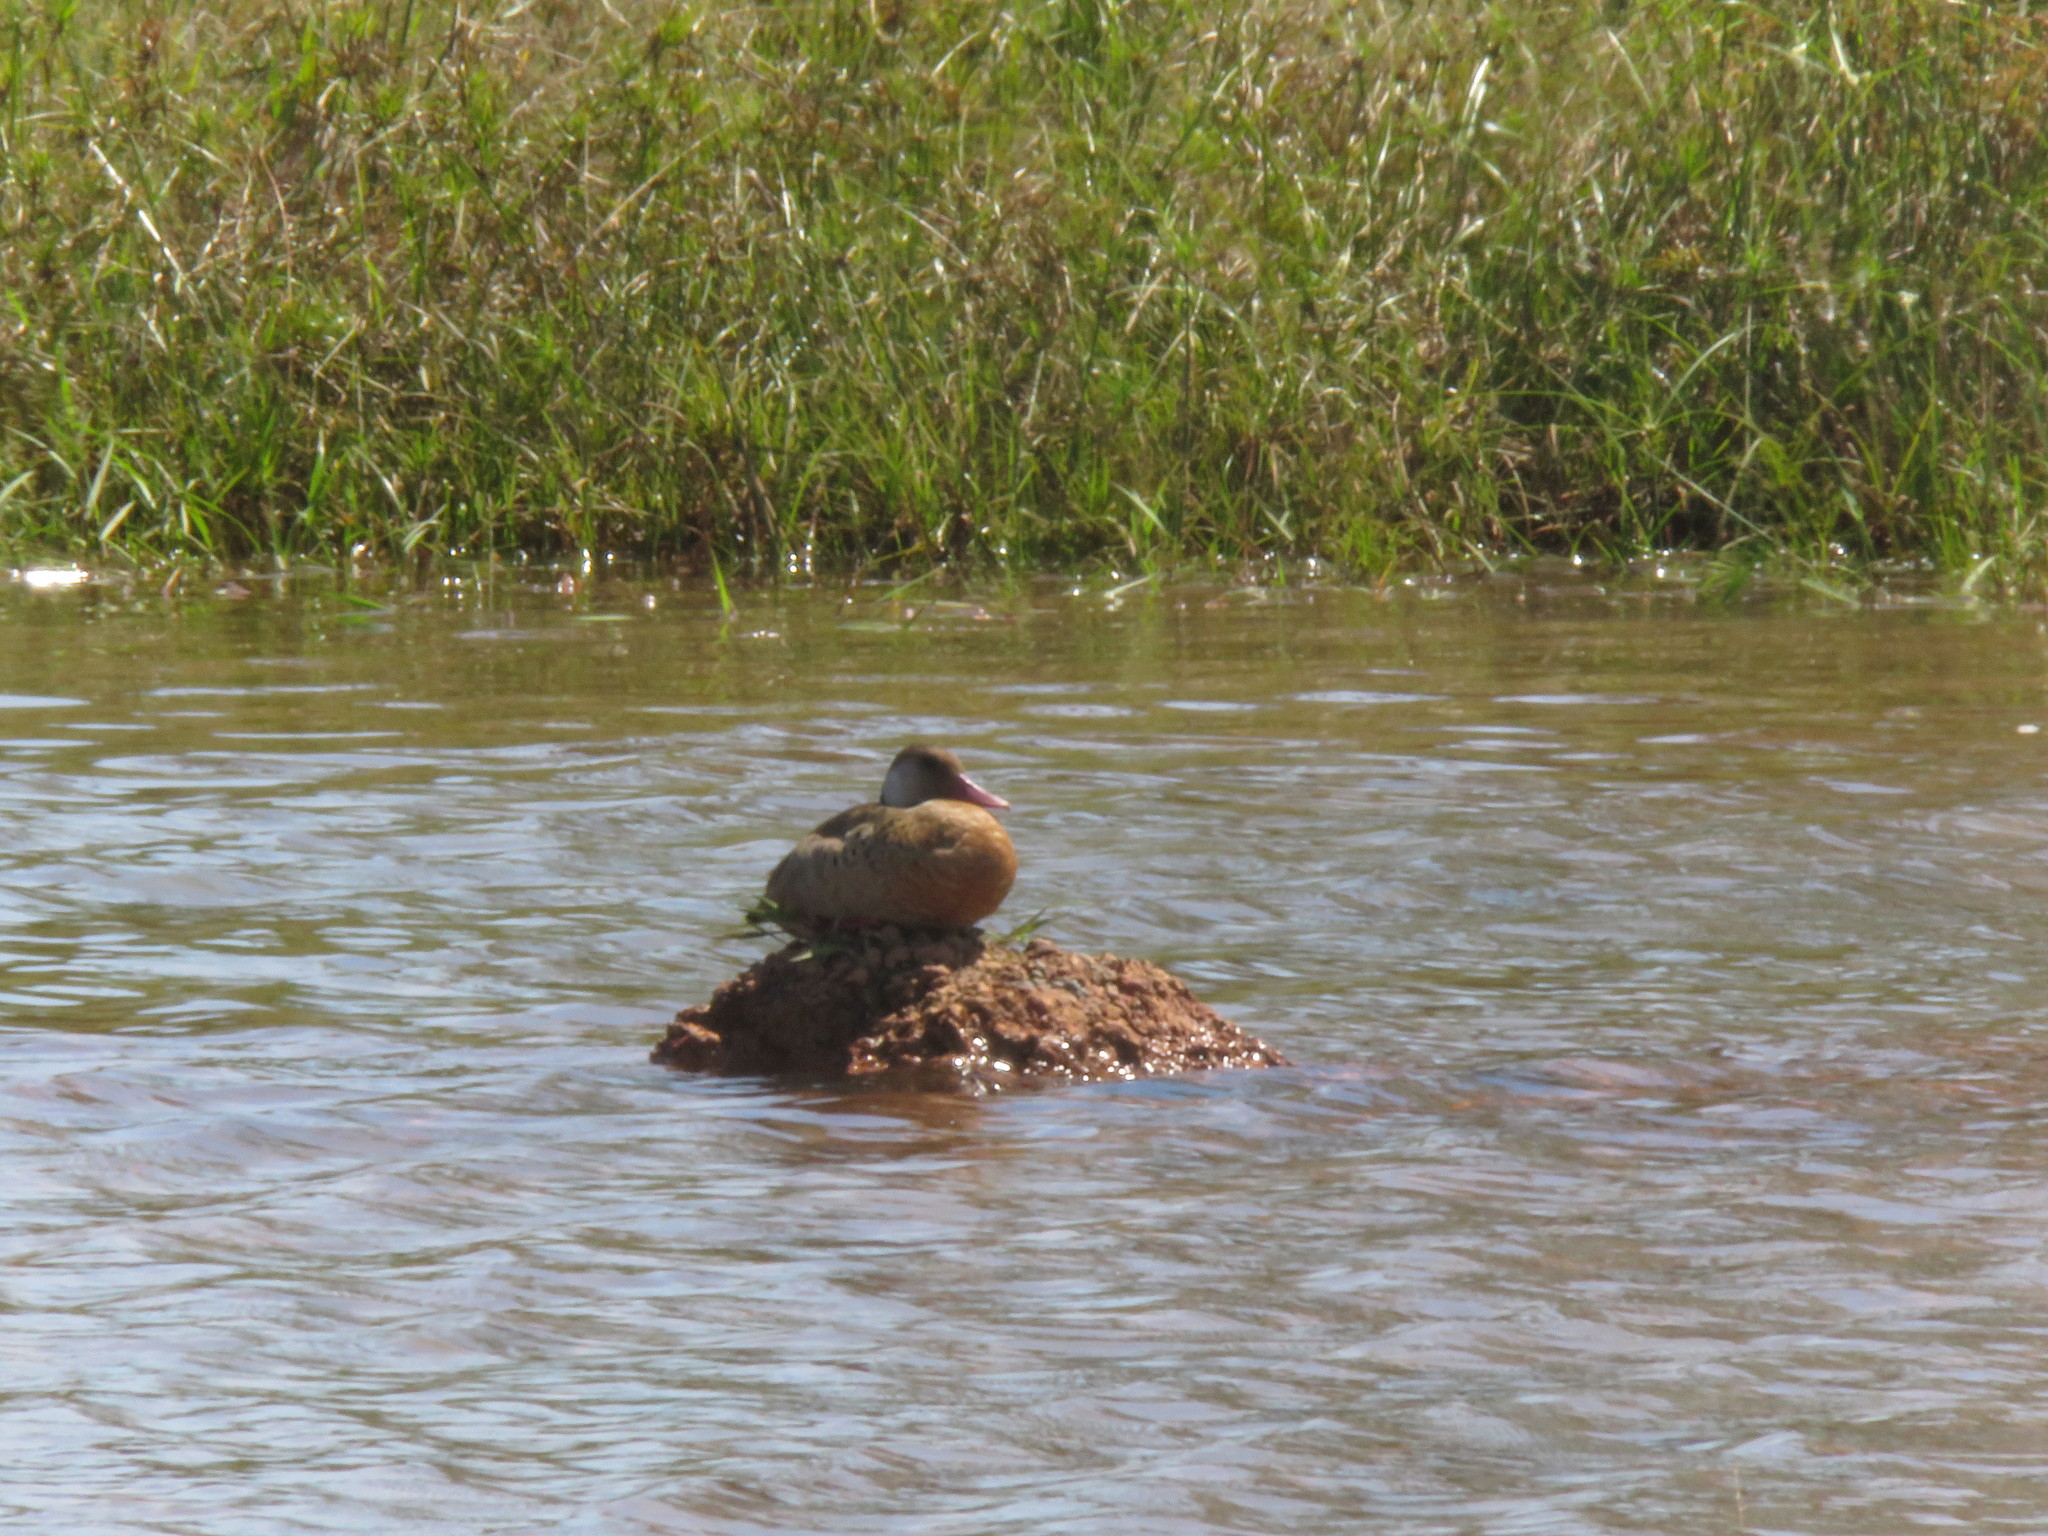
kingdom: Animalia
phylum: Chordata
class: Aves
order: Anseriformes
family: Anatidae
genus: Amazonetta
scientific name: Amazonetta brasiliensis
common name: Brazilian teal
